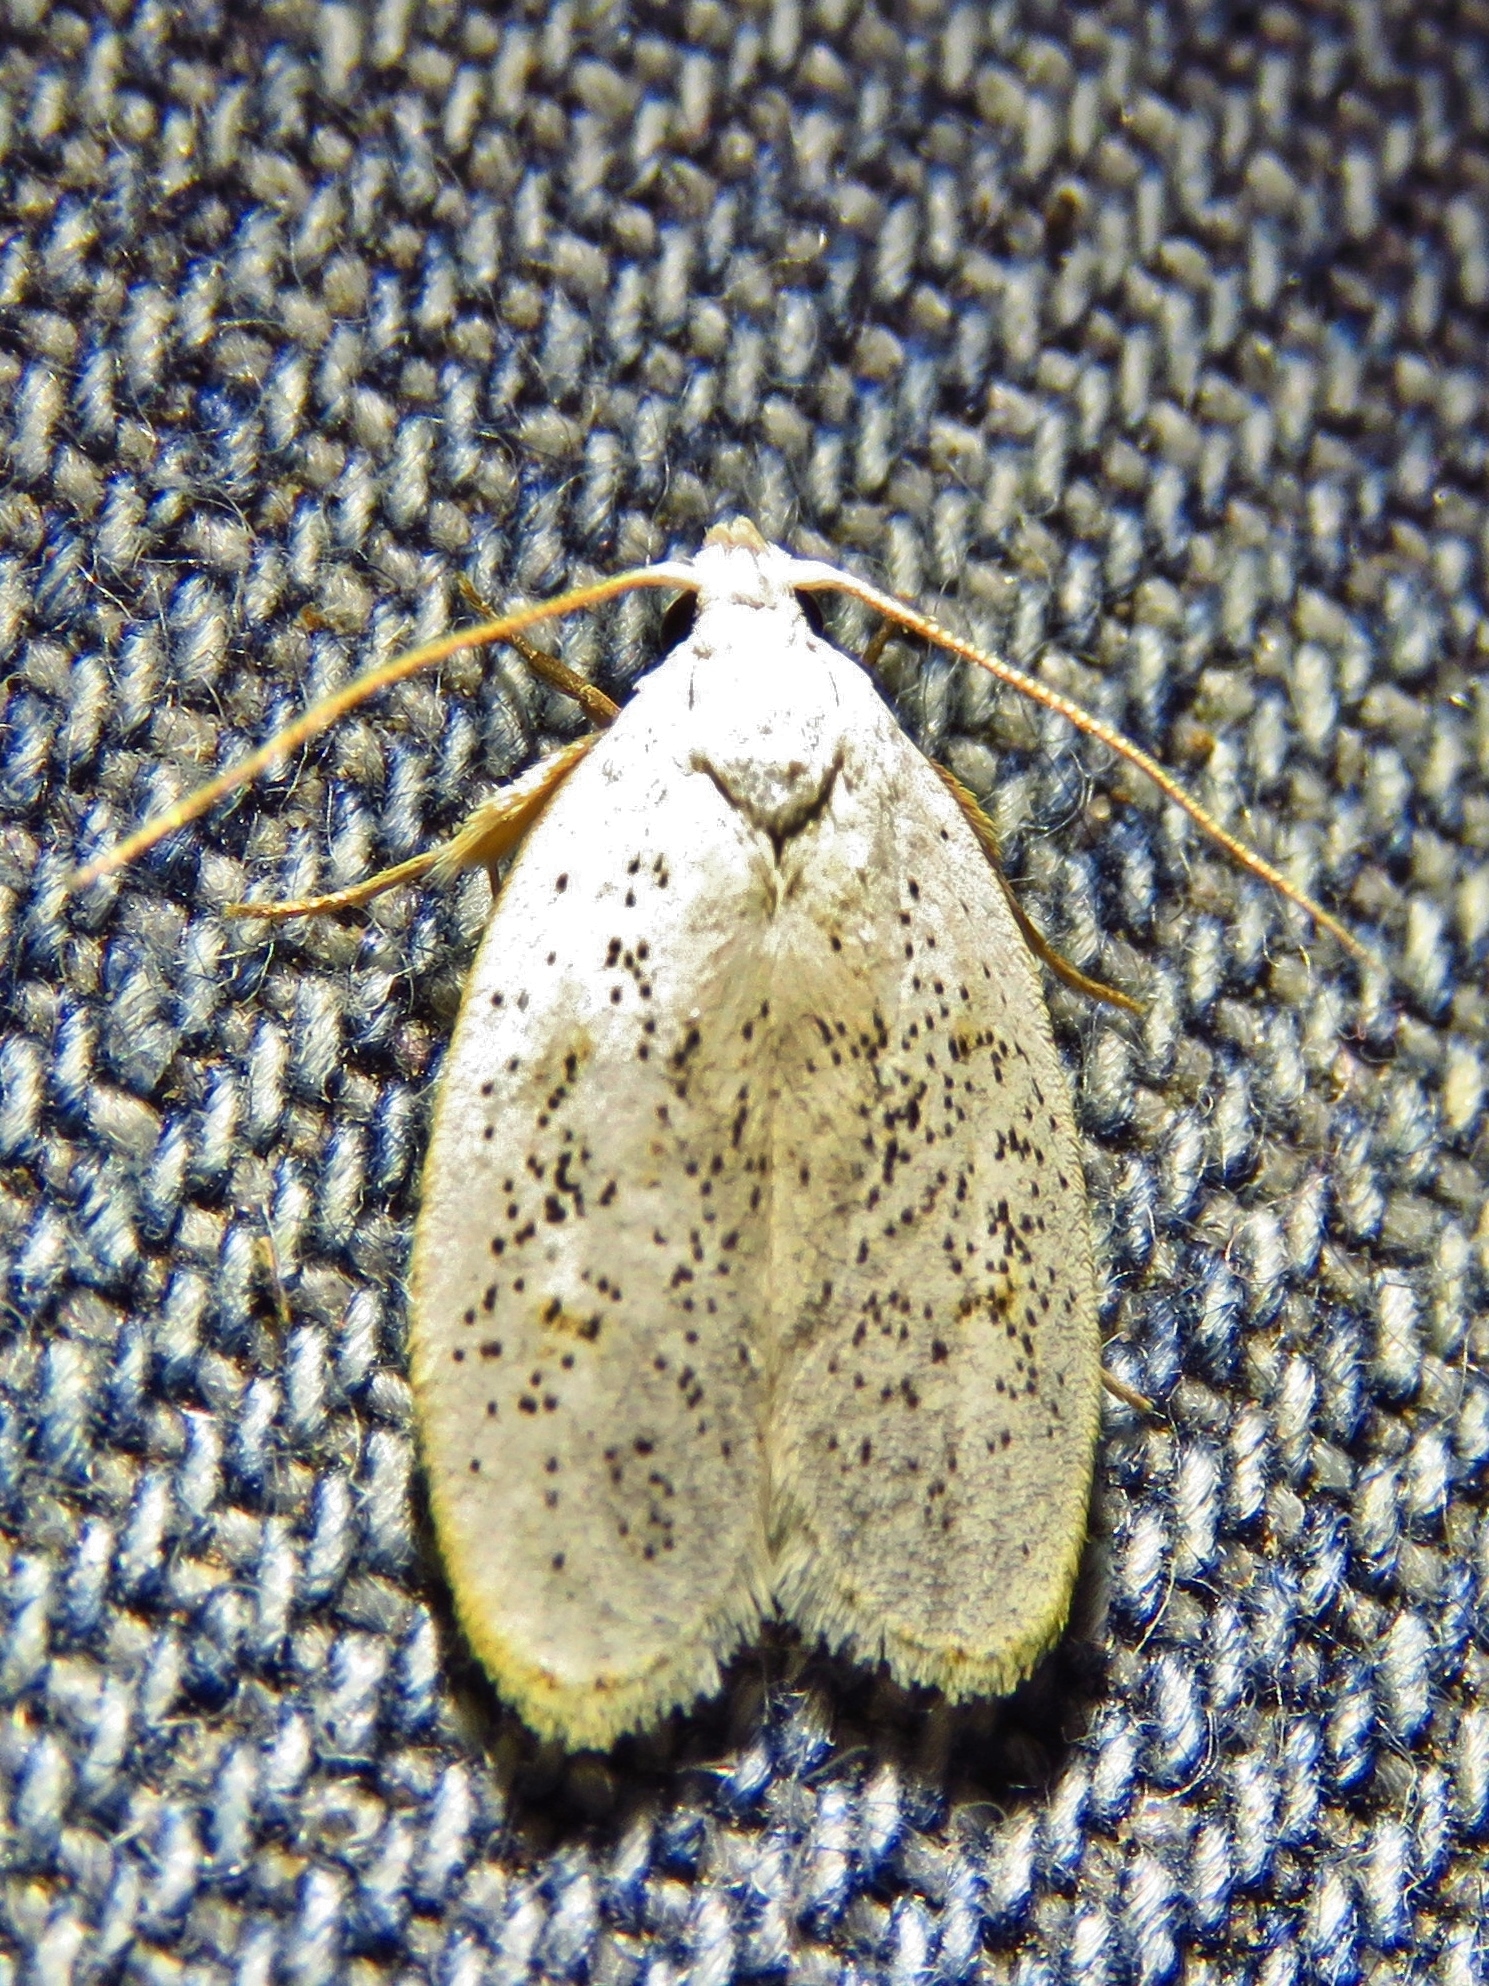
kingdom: Animalia
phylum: Arthropoda
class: Insecta
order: Lepidoptera
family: Peleopodidae
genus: Durrantia
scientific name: Durrantia piperatella
